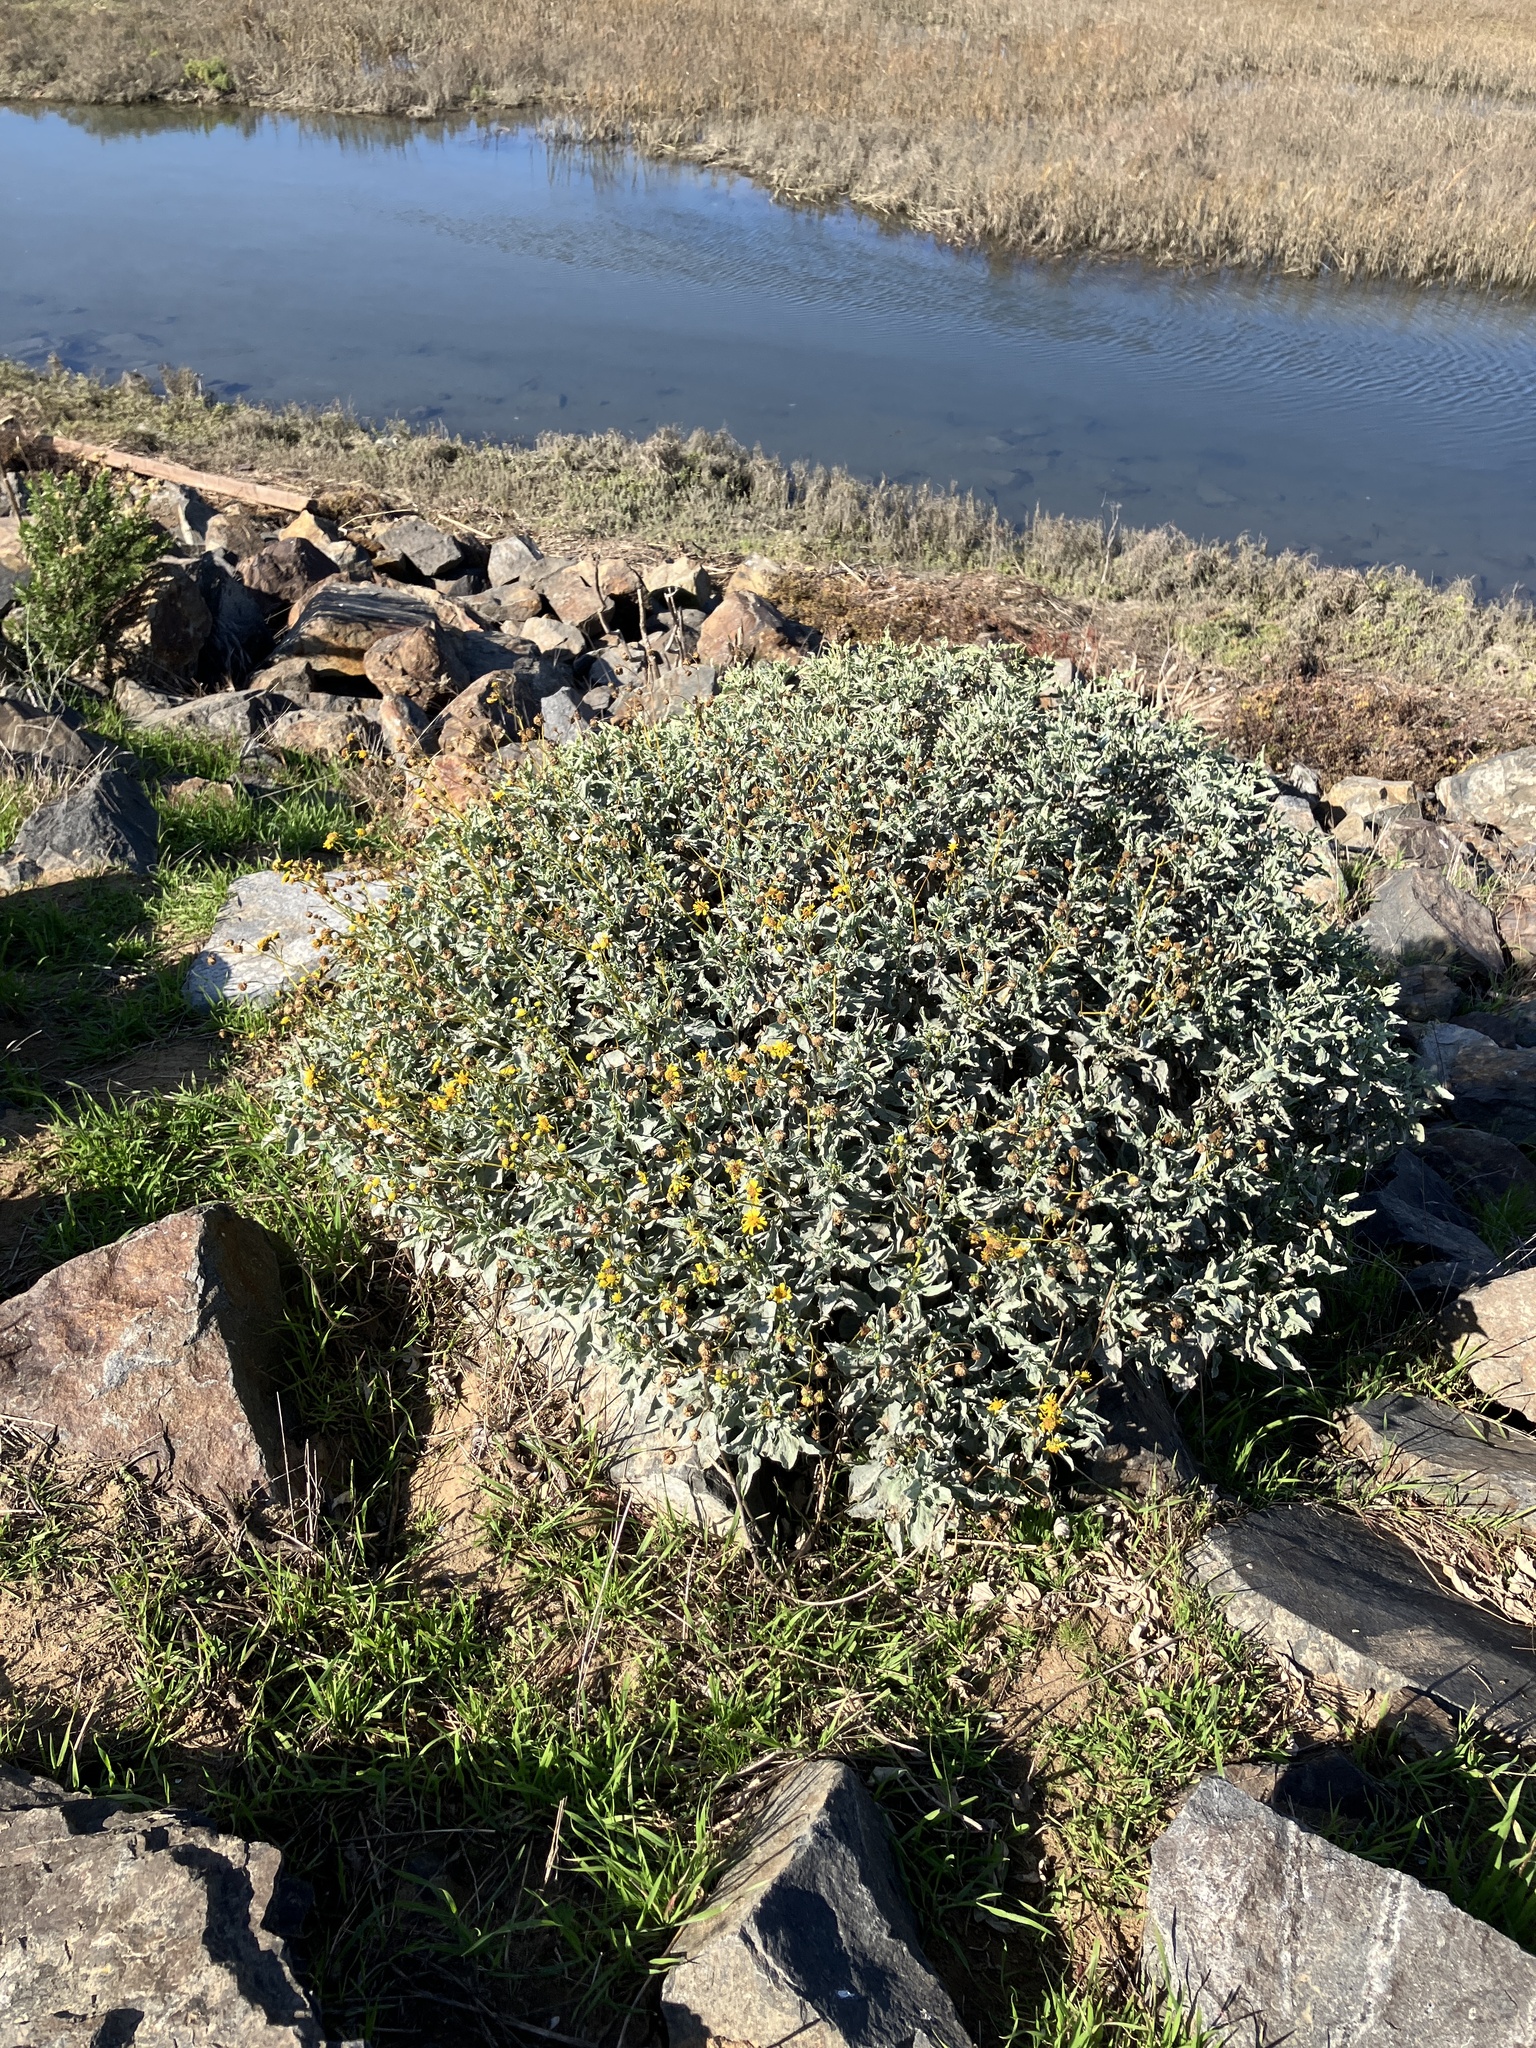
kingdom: Plantae
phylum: Tracheophyta
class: Magnoliopsida
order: Asterales
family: Asteraceae
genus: Encelia
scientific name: Encelia farinosa
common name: Brittlebush
